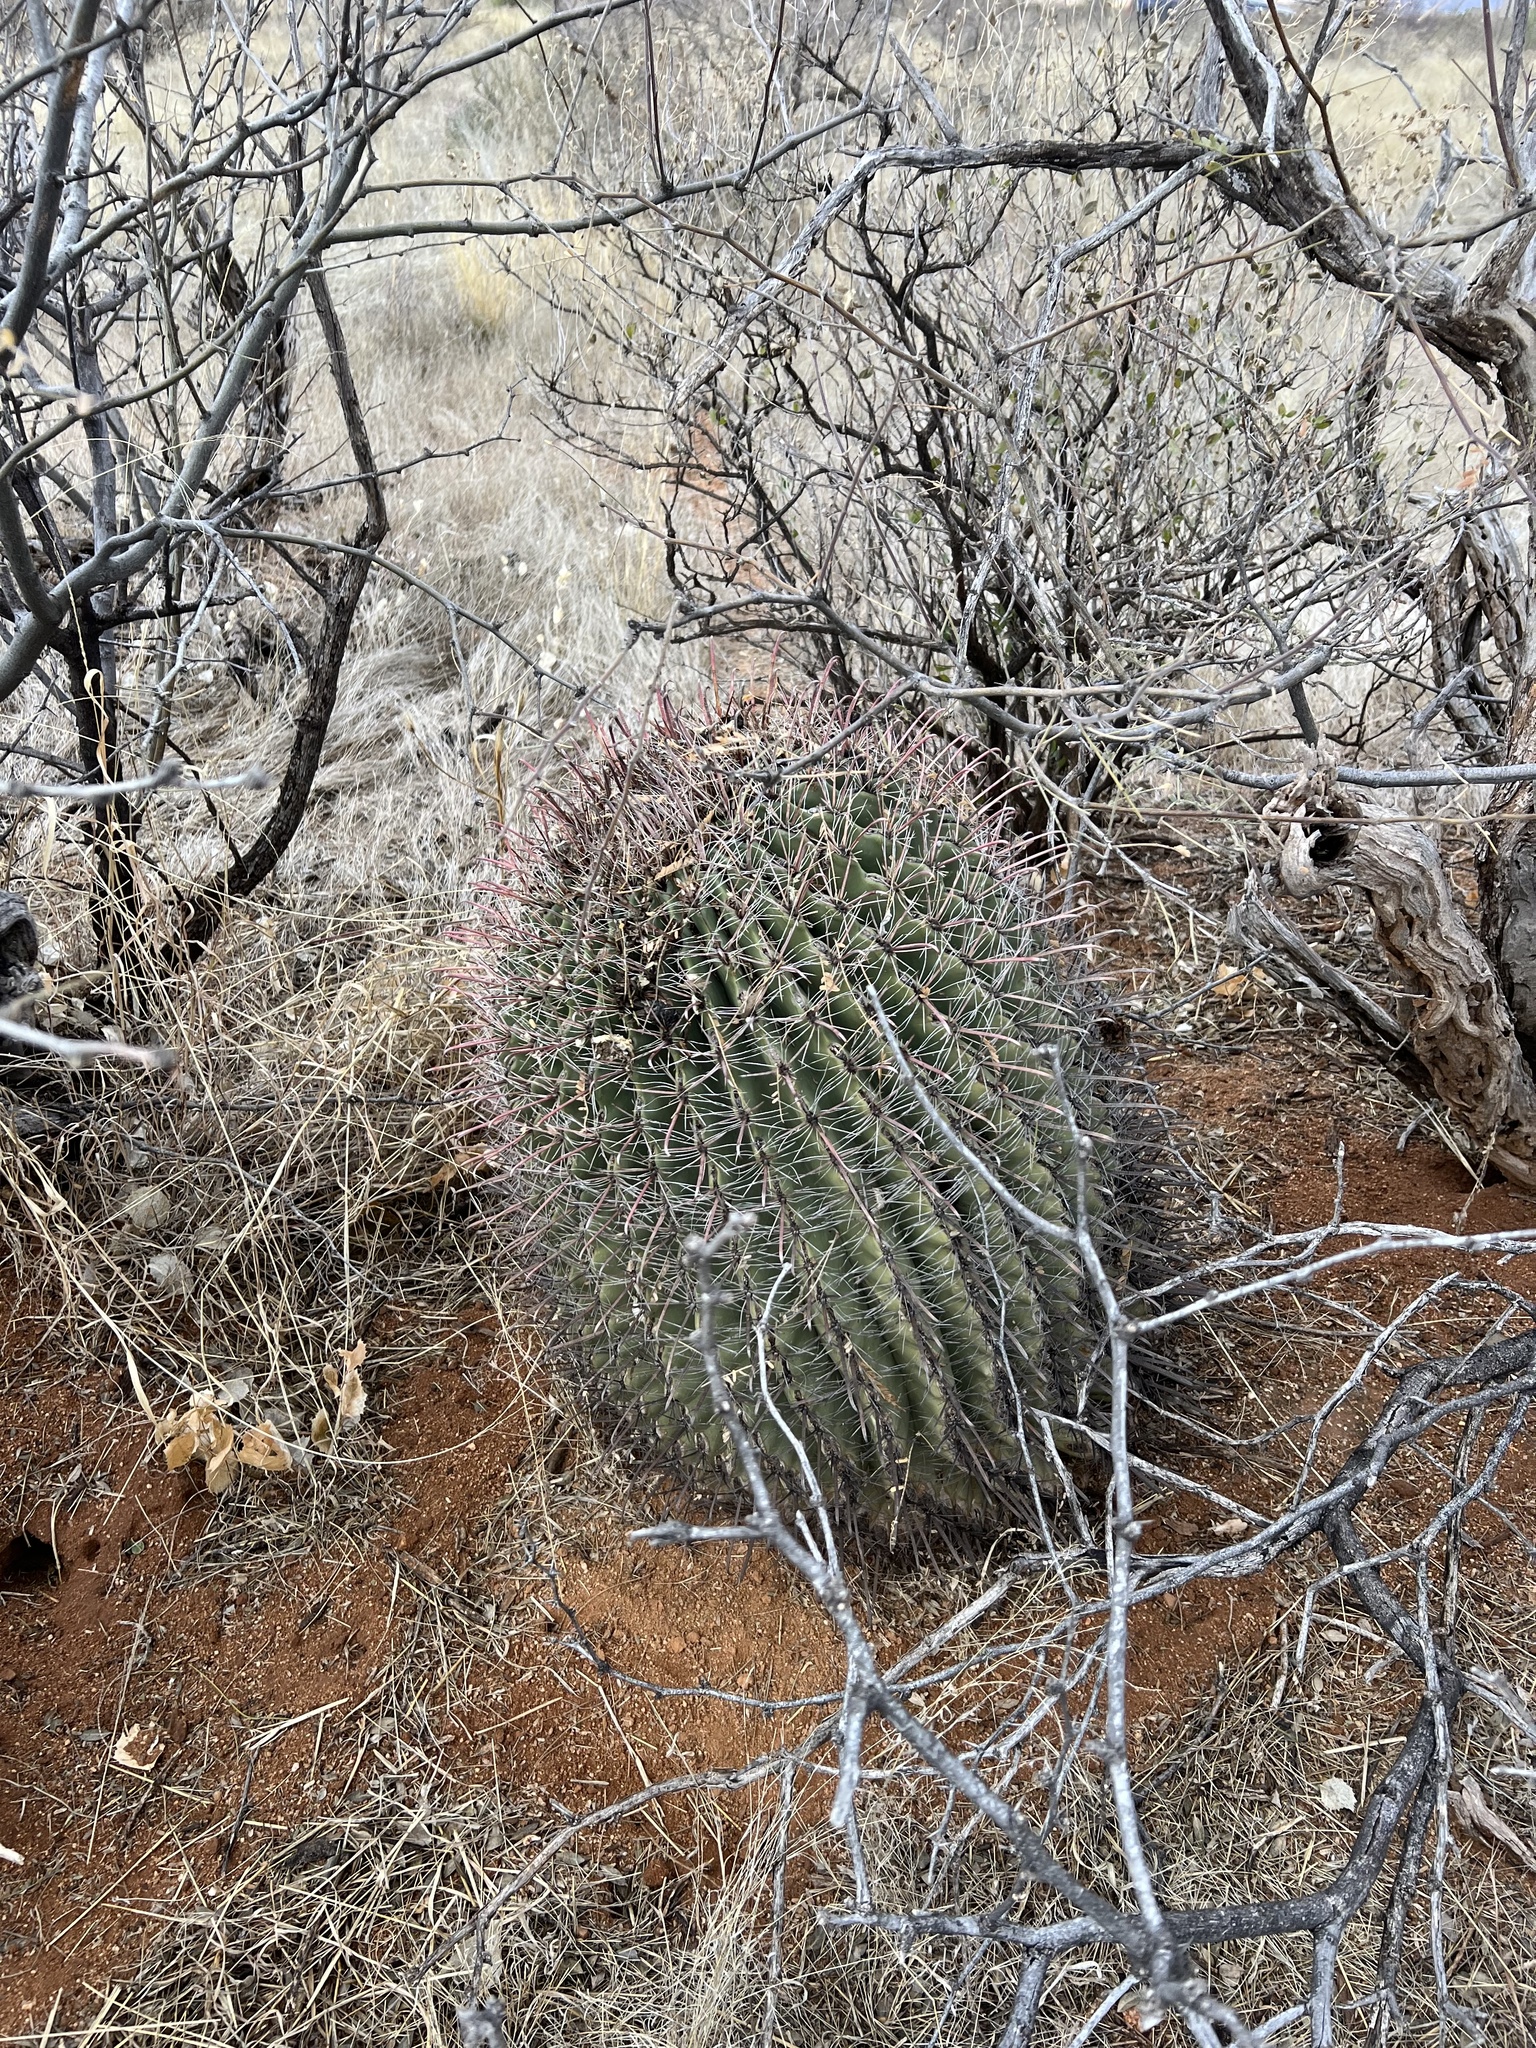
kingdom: Plantae
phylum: Tracheophyta
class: Magnoliopsida
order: Caryophyllales
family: Cactaceae
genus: Ferocactus
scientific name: Ferocactus wislizeni
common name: Candy barrel cactus
